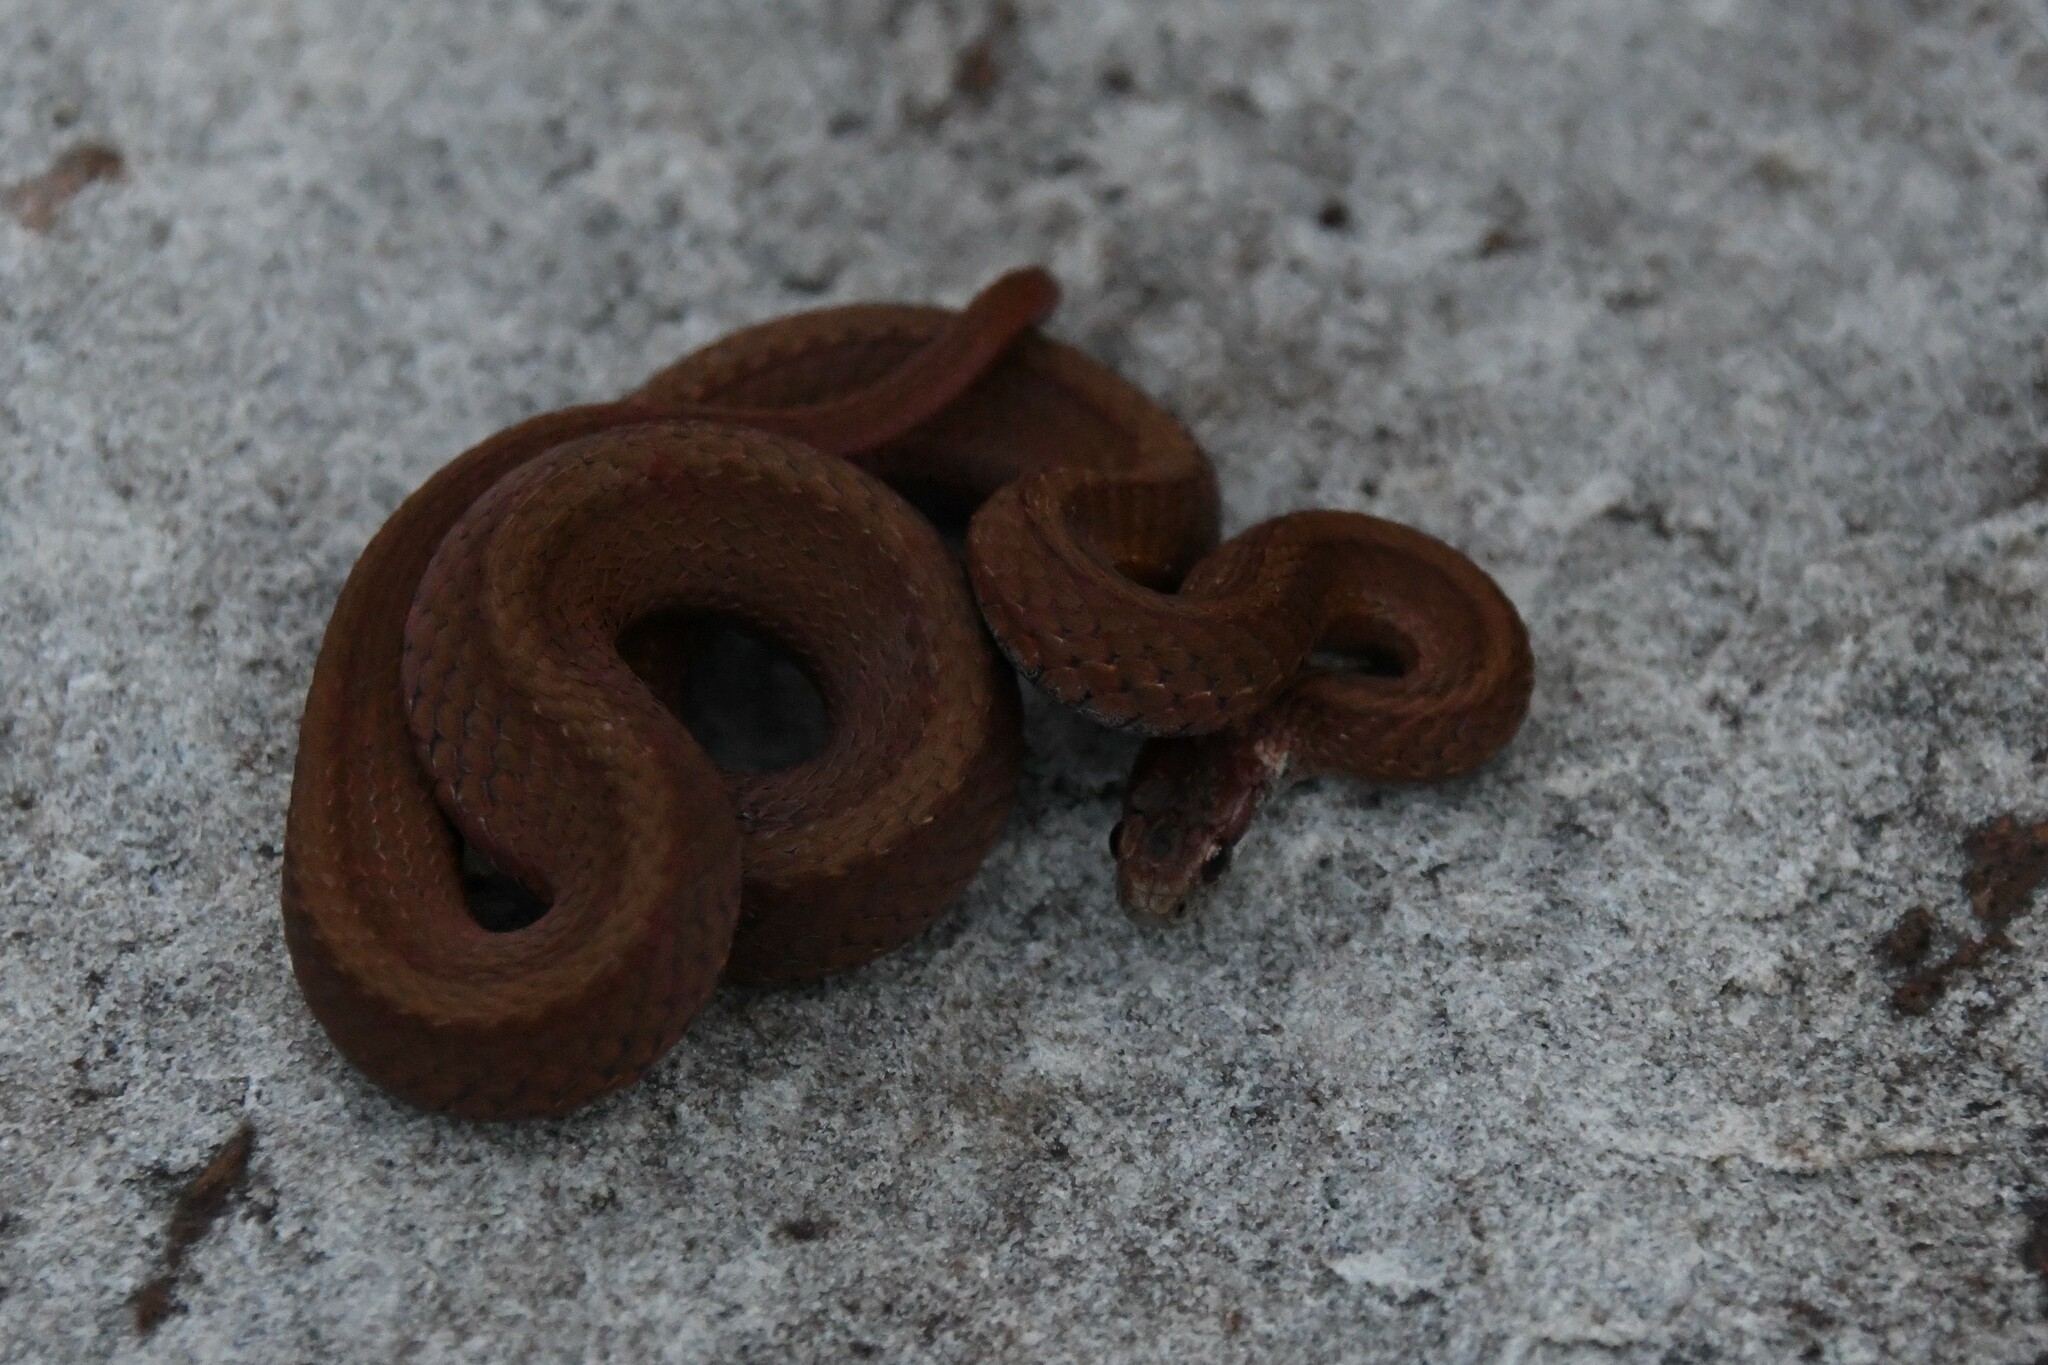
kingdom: Animalia
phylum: Chordata
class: Squamata
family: Colubridae
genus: Storeria
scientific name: Storeria occipitomaculata
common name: Redbelly snake
